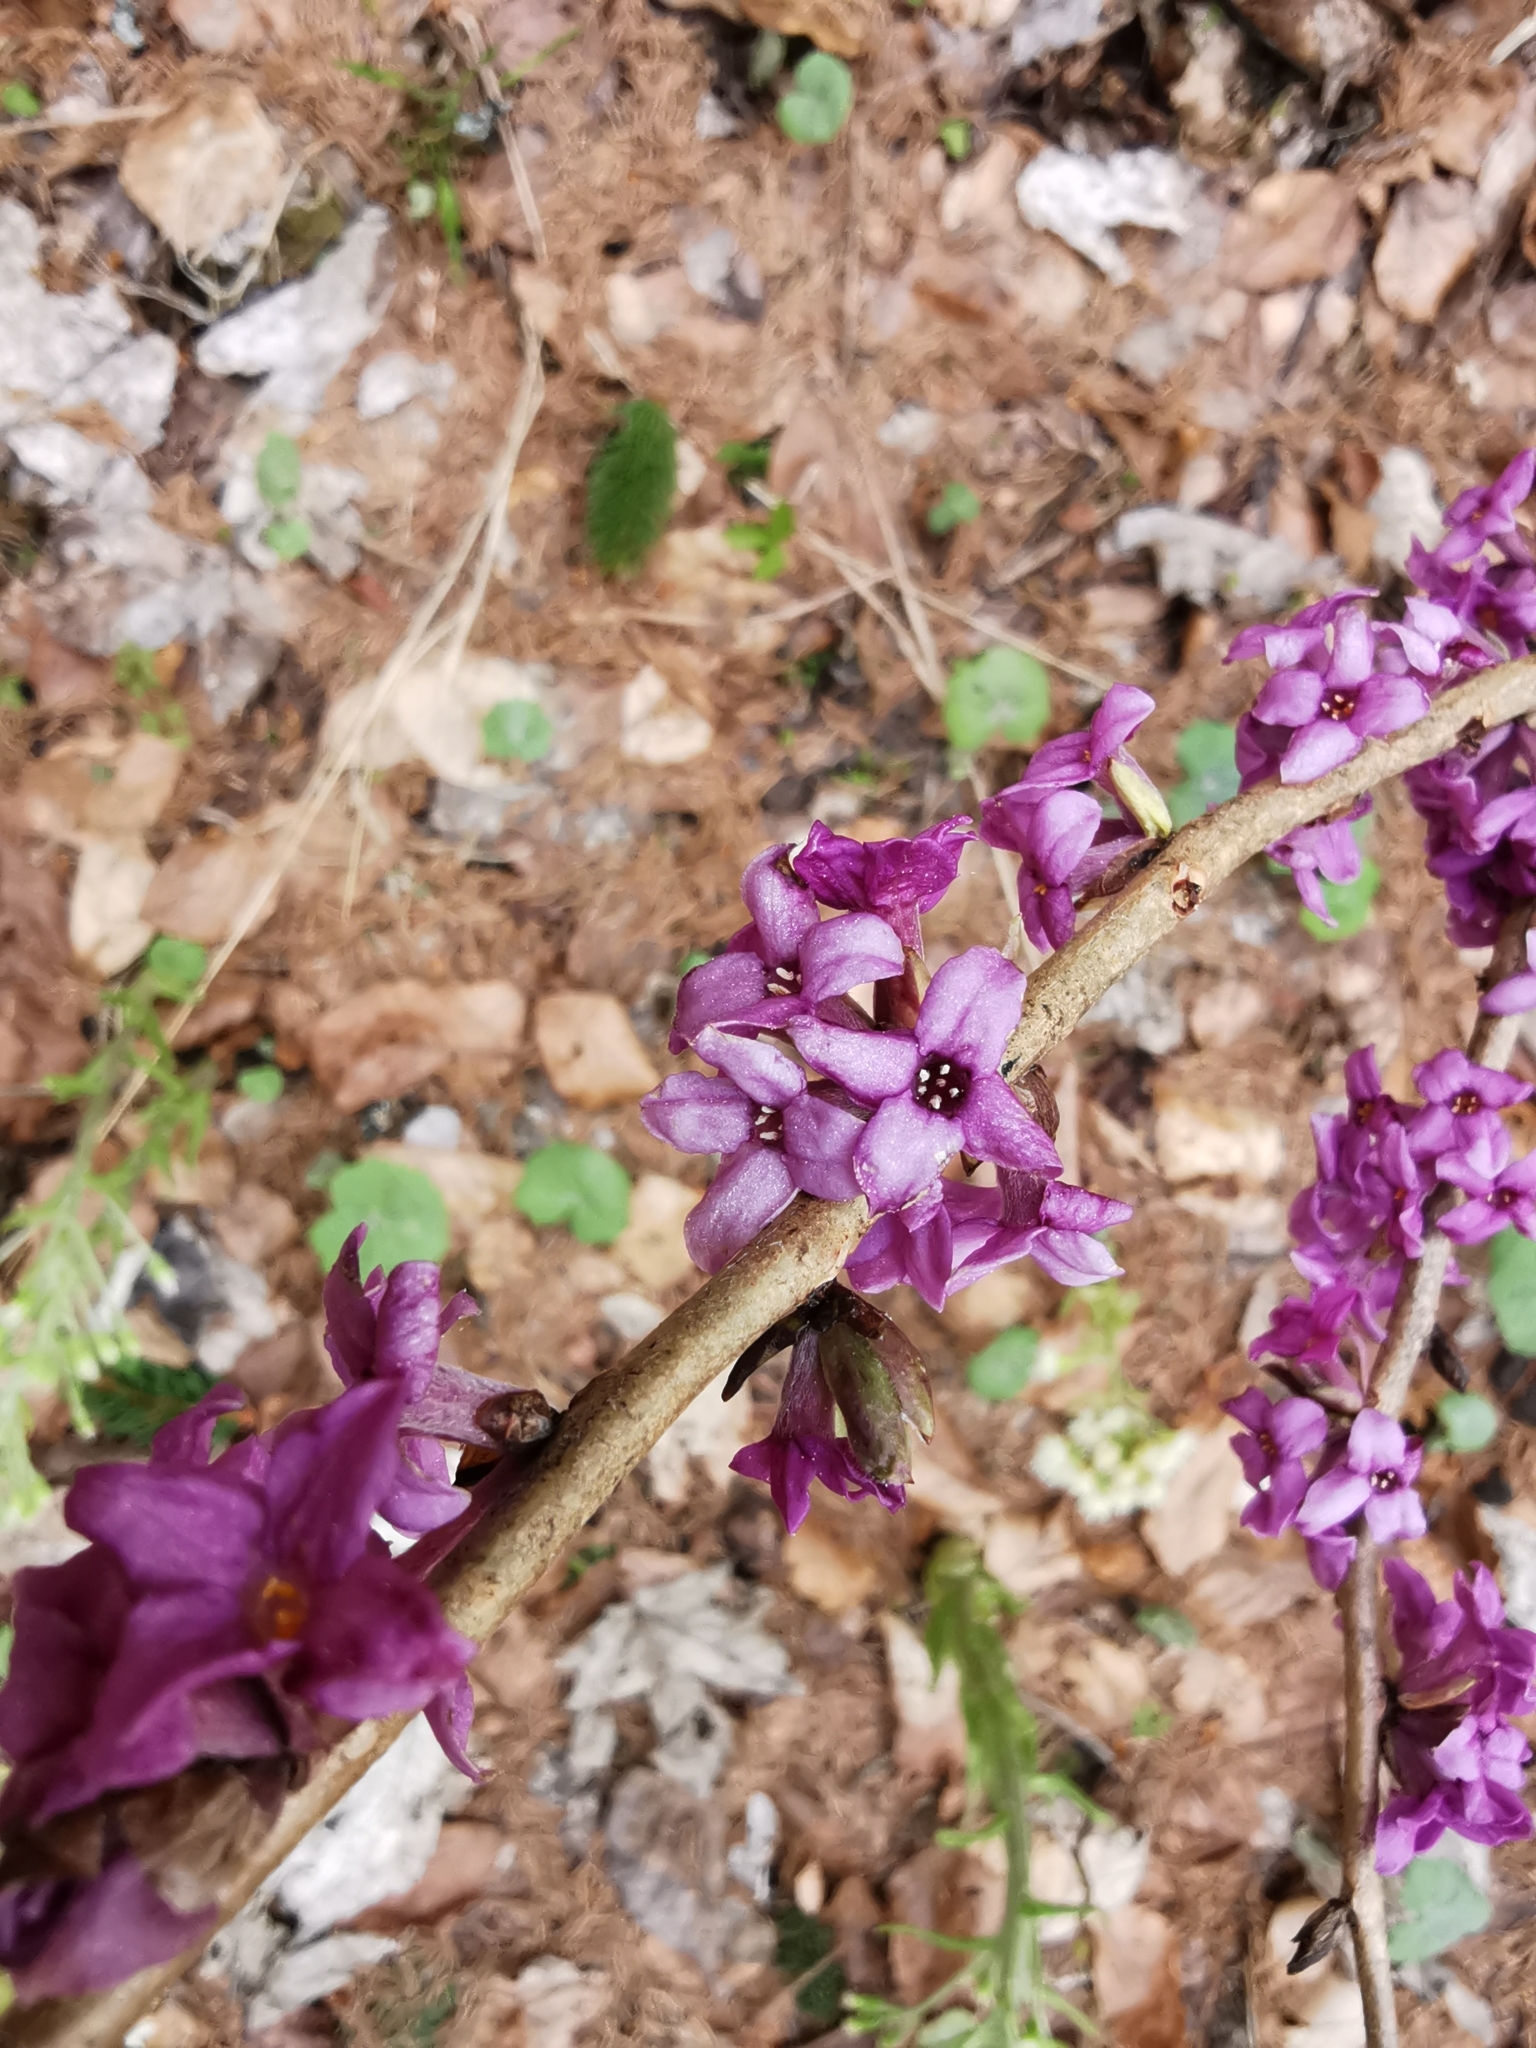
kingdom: Plantae
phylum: Tracheophyta
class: Magnoliopsida
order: Malvales
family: Thymelaeaceae
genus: Daphne
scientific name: Daphne mezereum
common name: Mezereon
